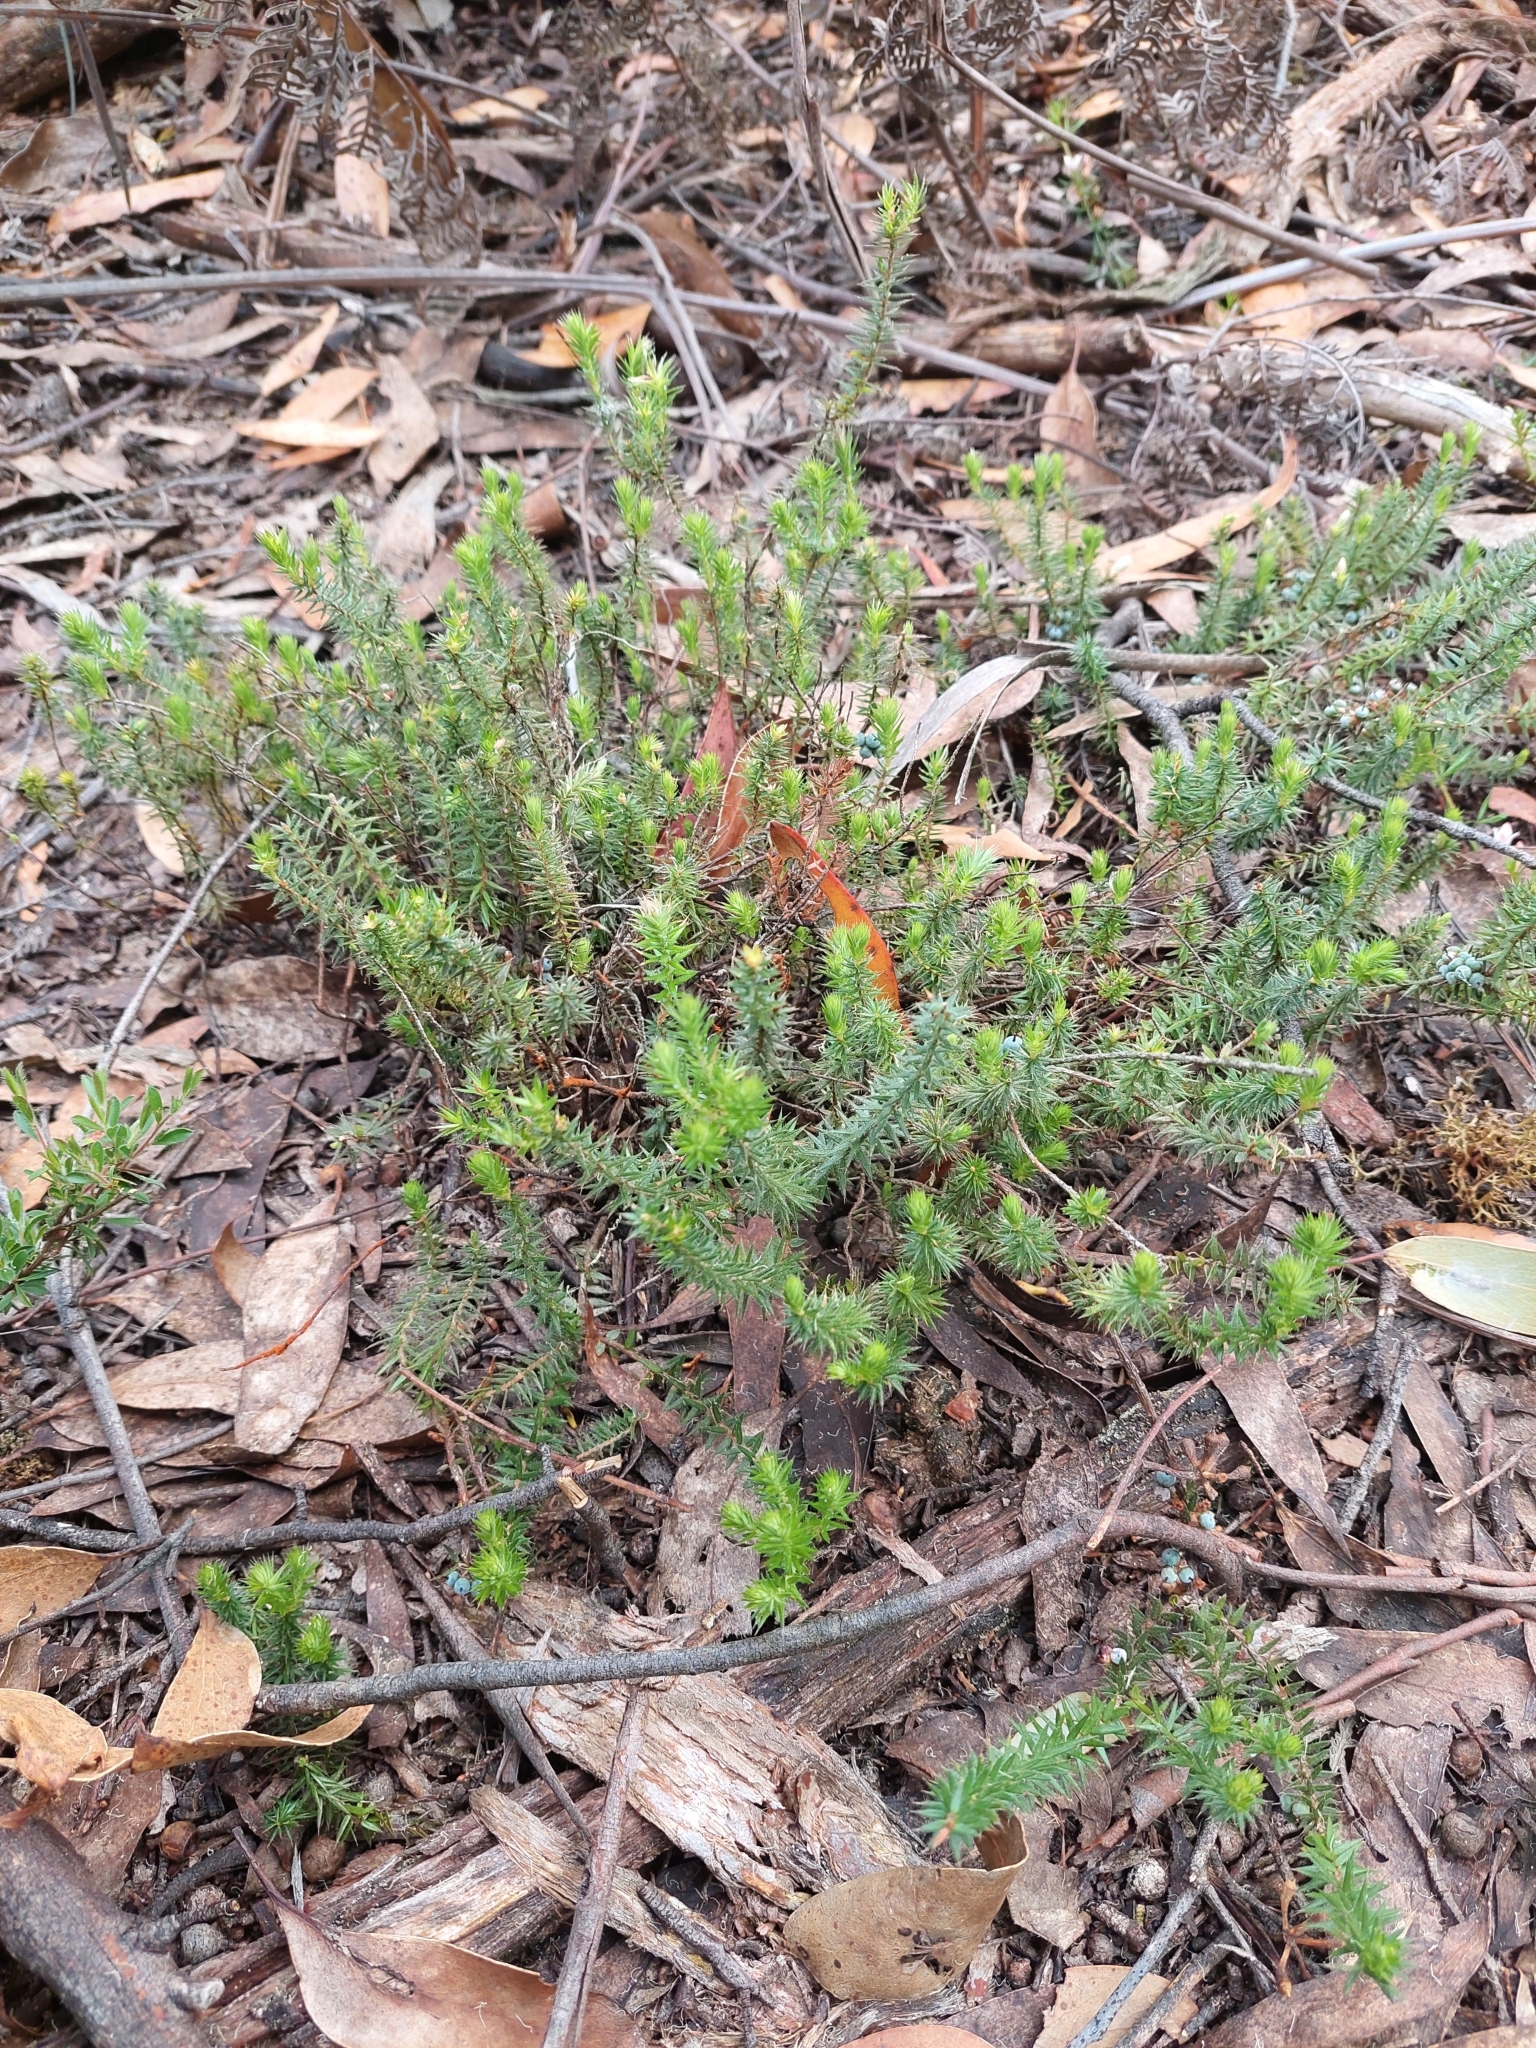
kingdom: Plantae
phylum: Tracheophyta
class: Magnoliopsida
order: Ericales
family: Ericaceae
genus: Acrotriche
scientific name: Acrotriche serrulata
